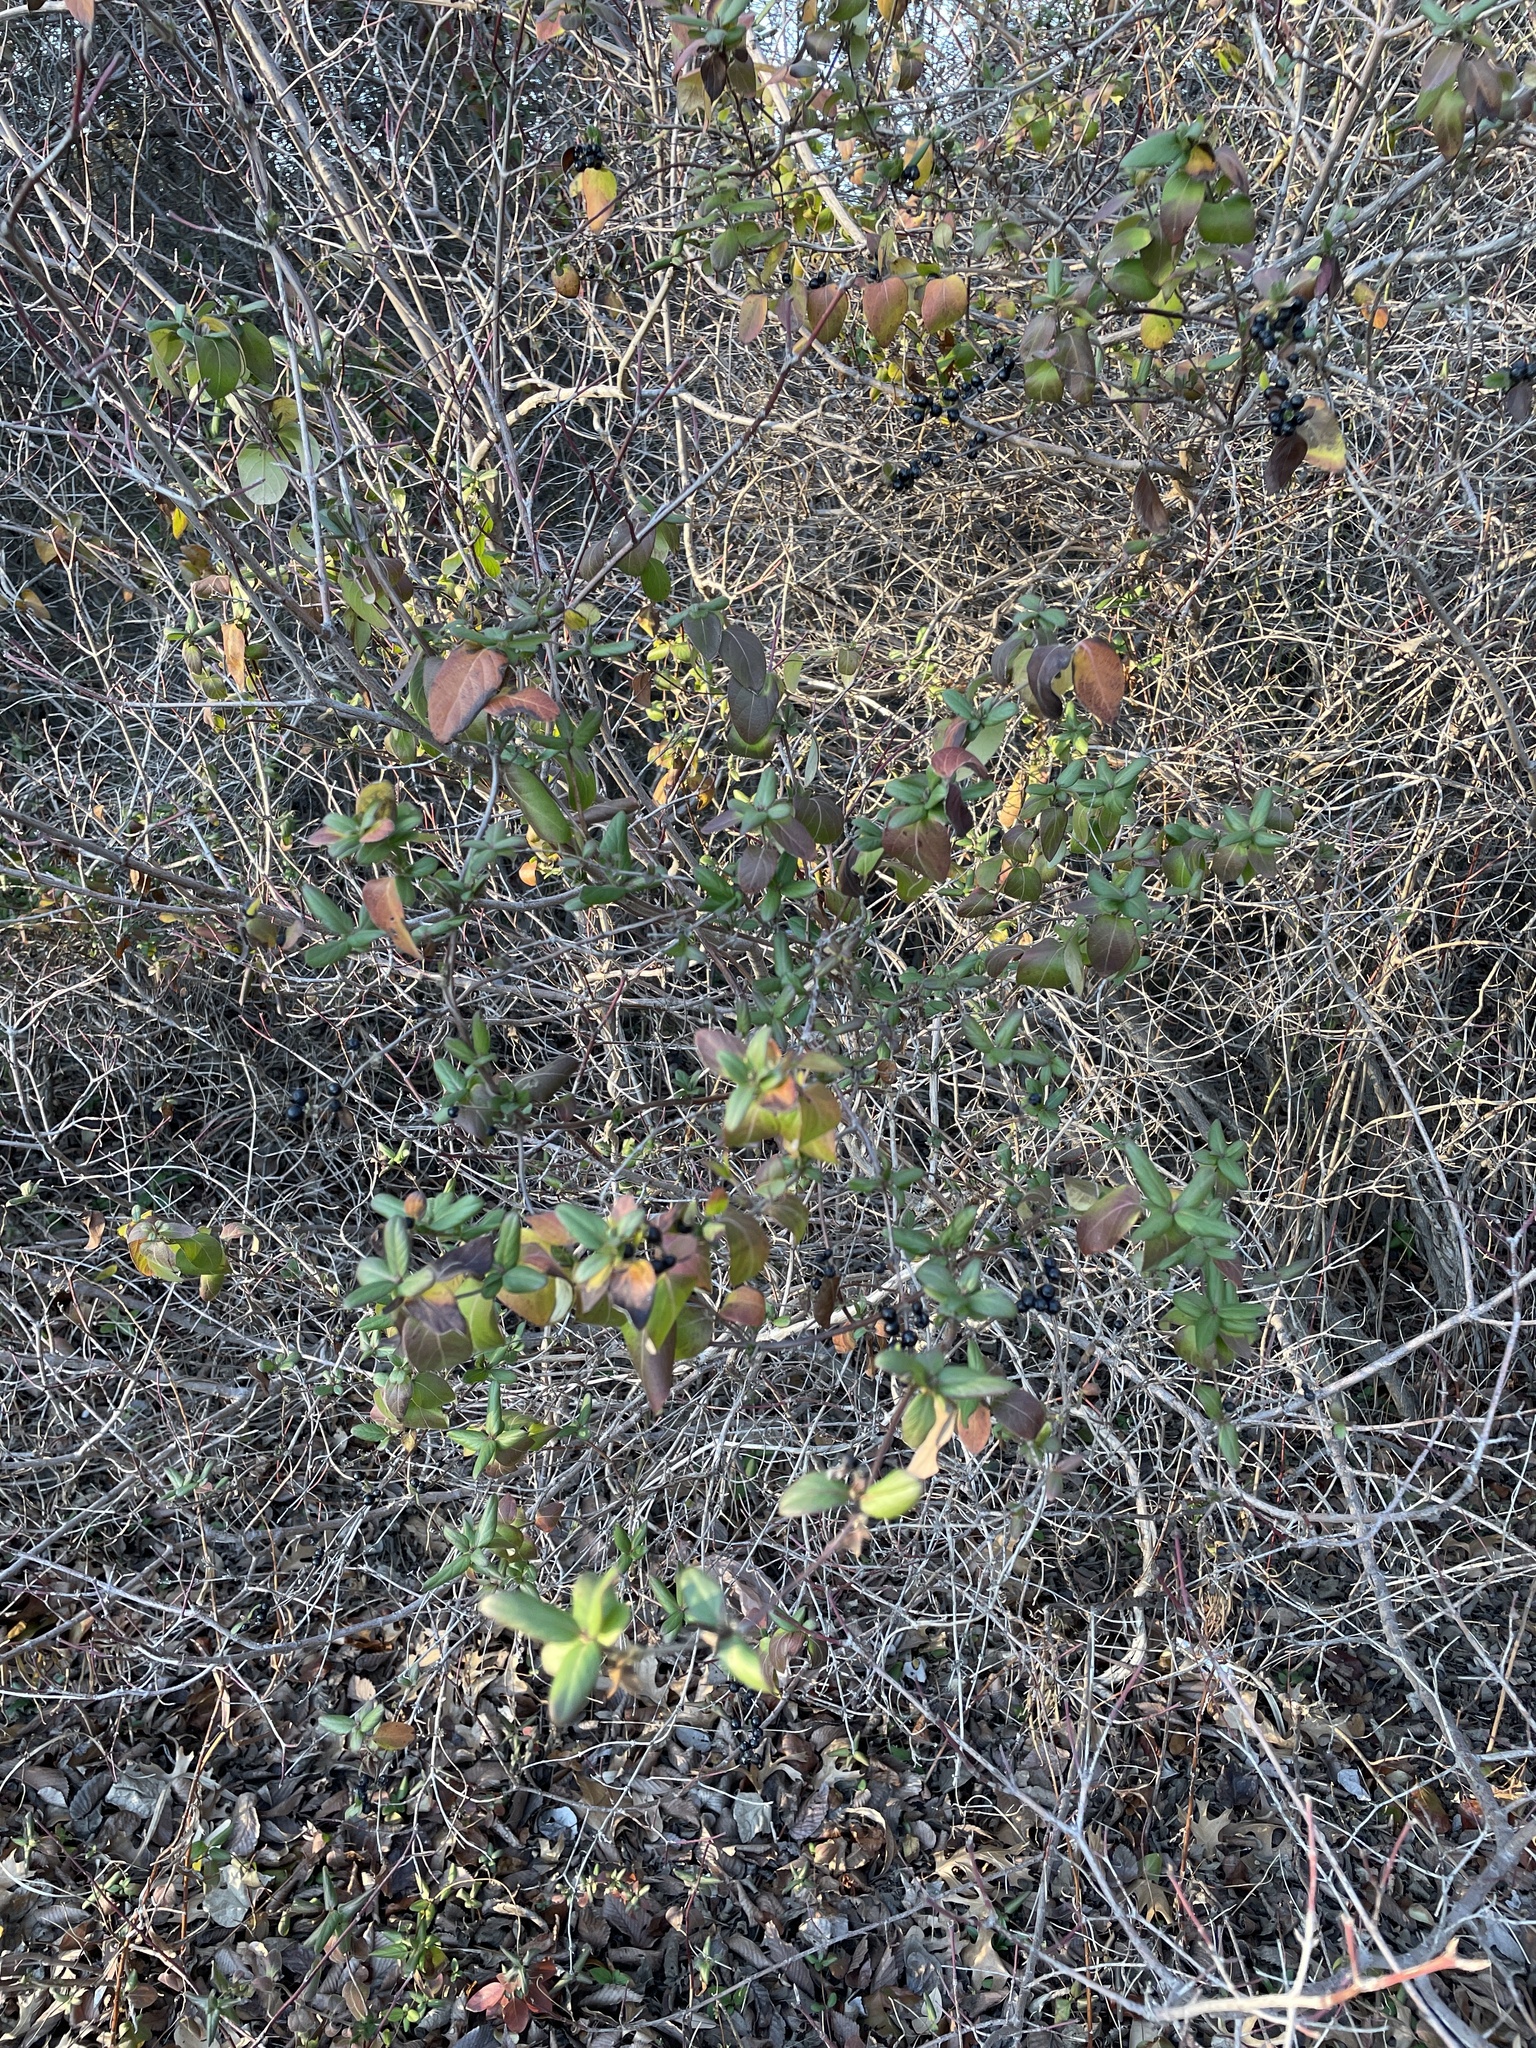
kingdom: Plantae
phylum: Tracheophyta
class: Magnoliopsida
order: Dipsacales
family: Caprifoliaceae
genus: Lonicera
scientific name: Lonicera japonica
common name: Japanese honeysuckle
